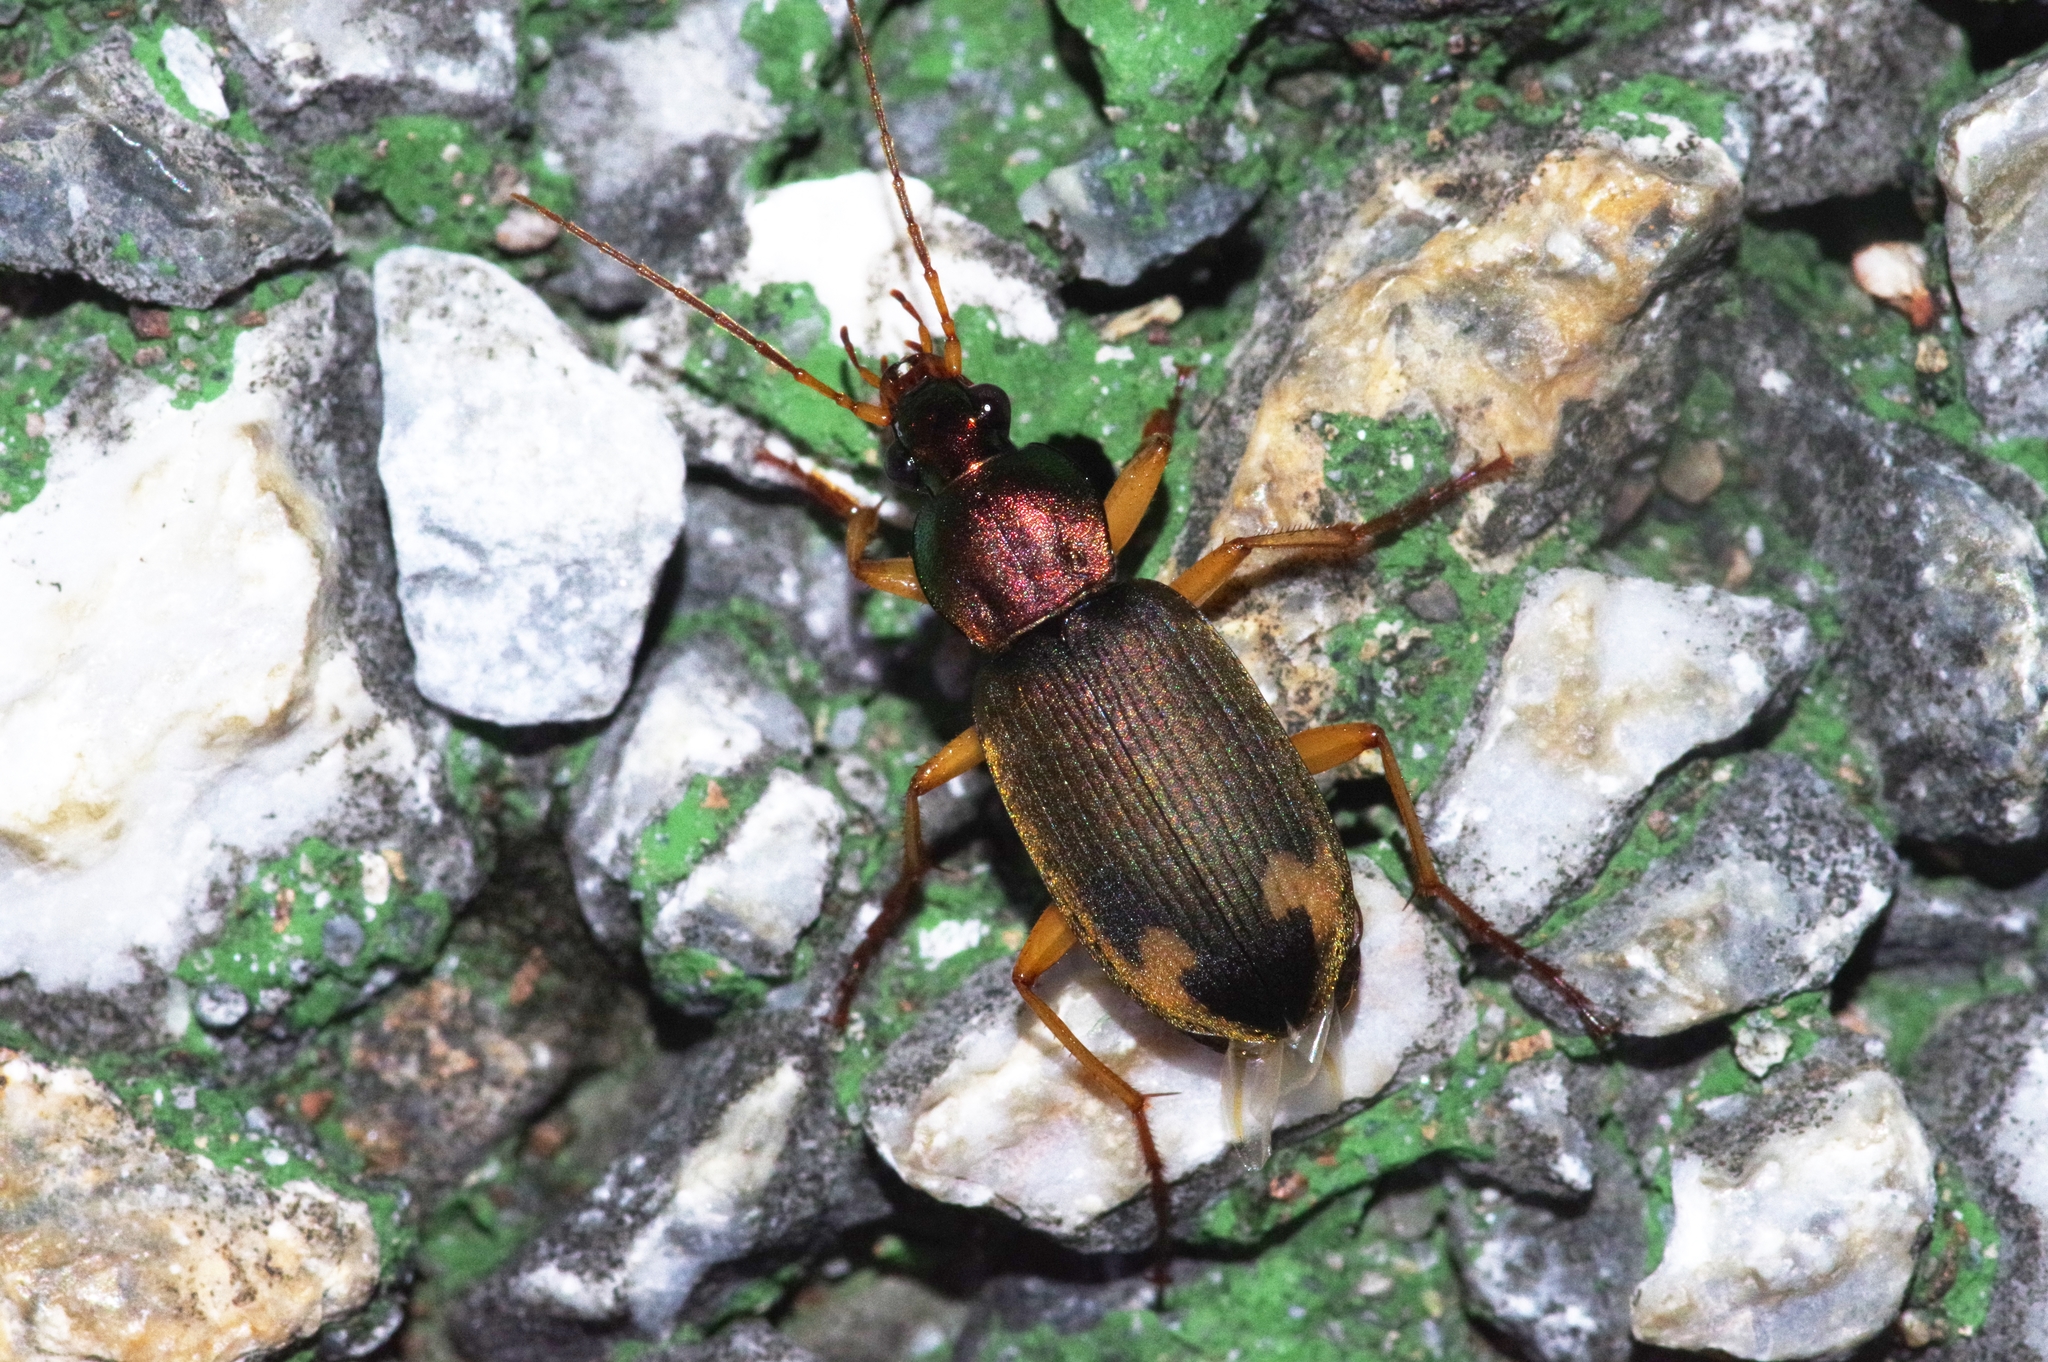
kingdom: Animalia
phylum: Arthropoda
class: Insecta
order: Coleoptera
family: Carabidae
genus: Chlaenius
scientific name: Chlaenius virgulifer
